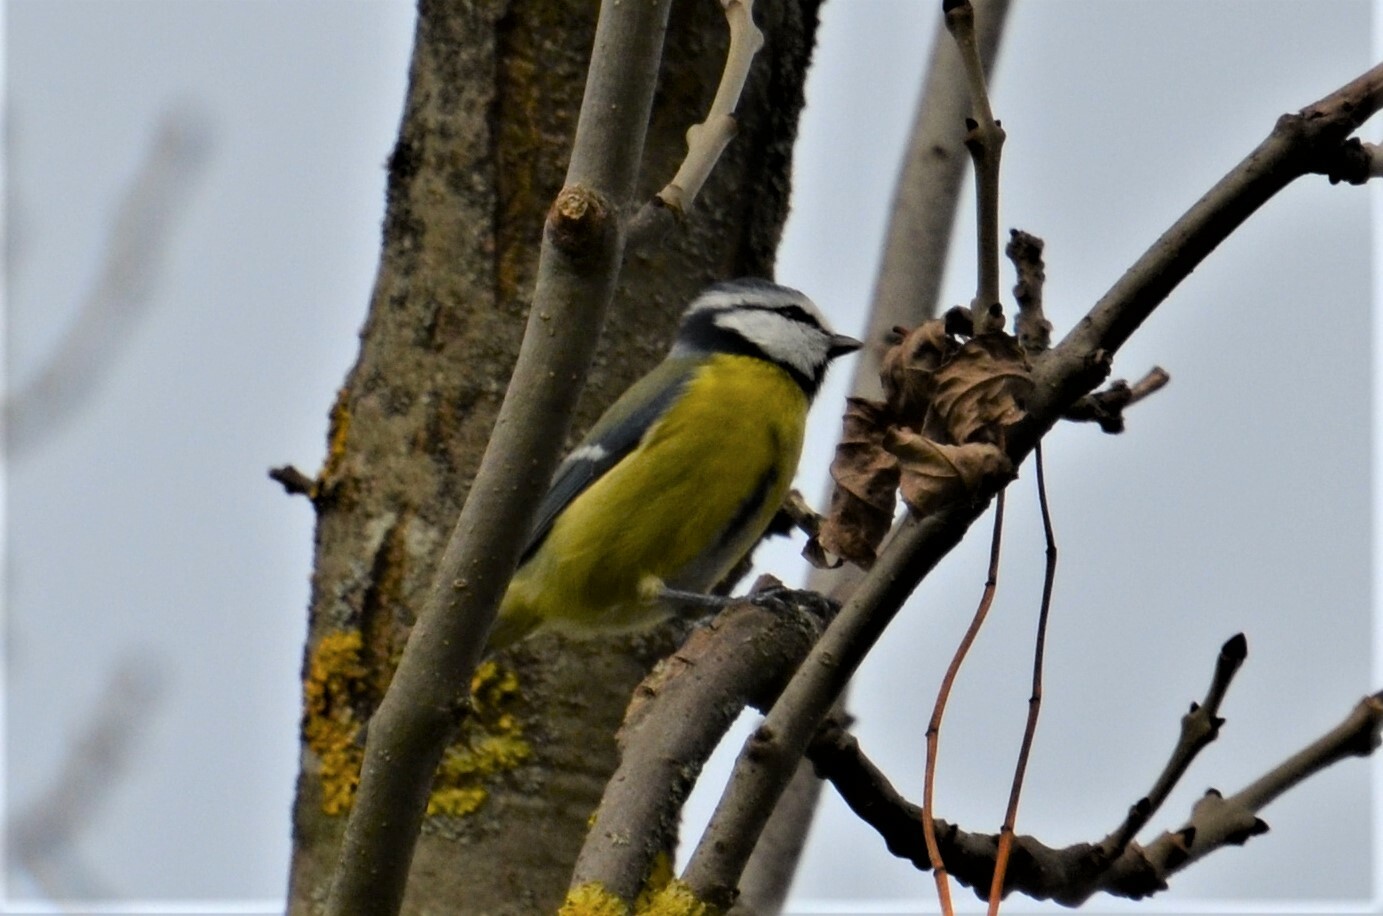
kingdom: Animalia
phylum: Chordata
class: Aves
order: Passeriformes
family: Paridae
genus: Cyanistes
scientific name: Cyanistes caeruleus
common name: Eurasian blue tit
